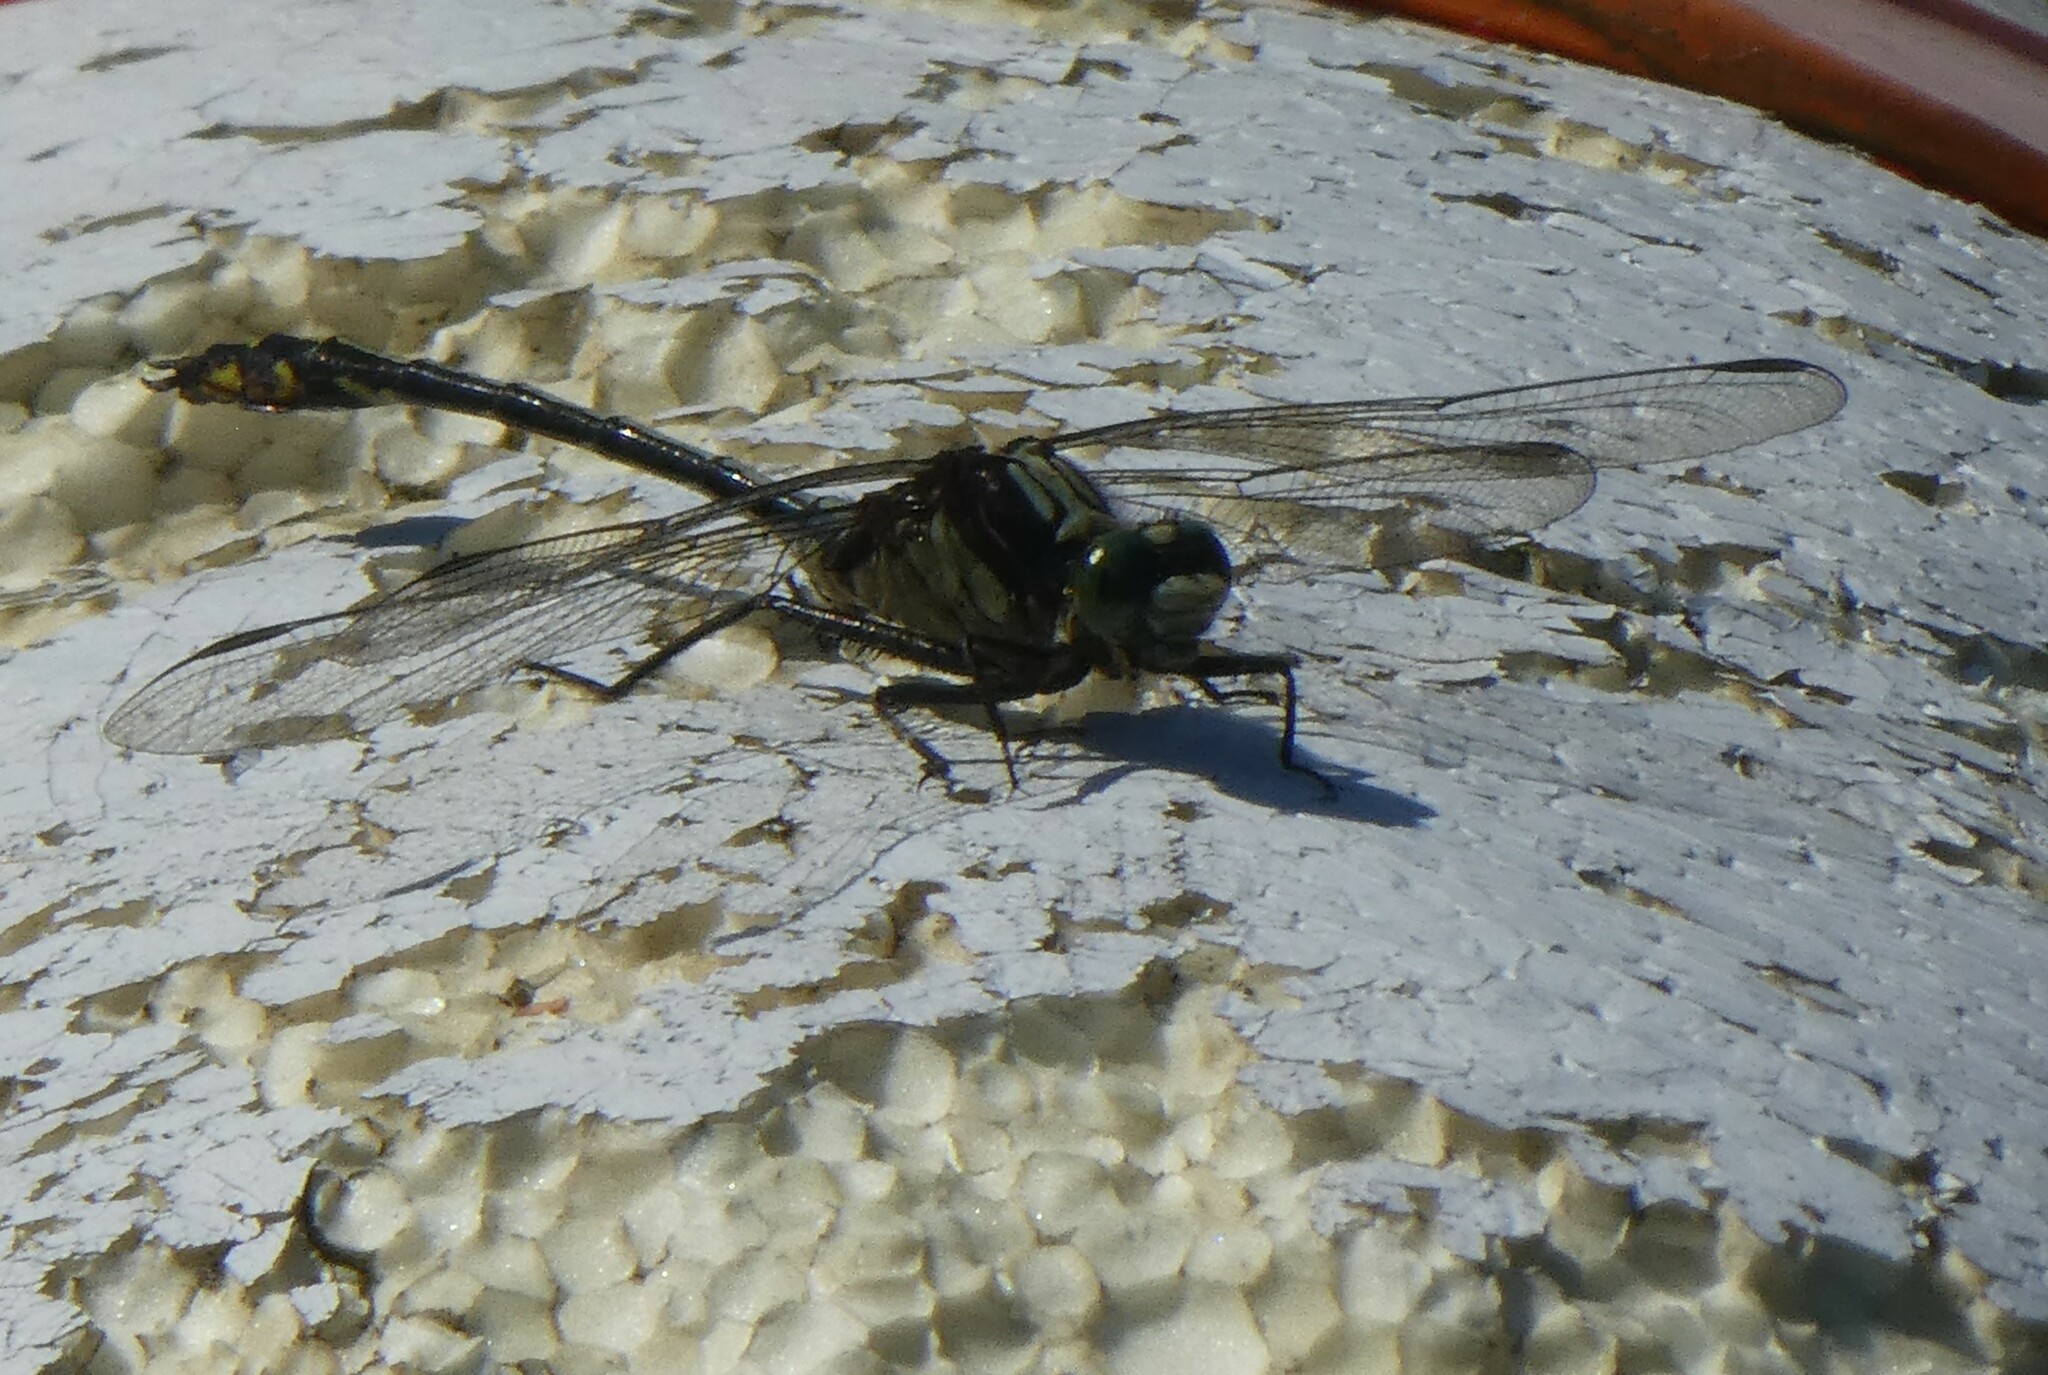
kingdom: Animalia
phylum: Arthropoda
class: Insecta
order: Odonata
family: Gomphidae
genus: Dromogomphus
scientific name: Dromogomphus spinosus
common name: Black-shouldered spinyleg
